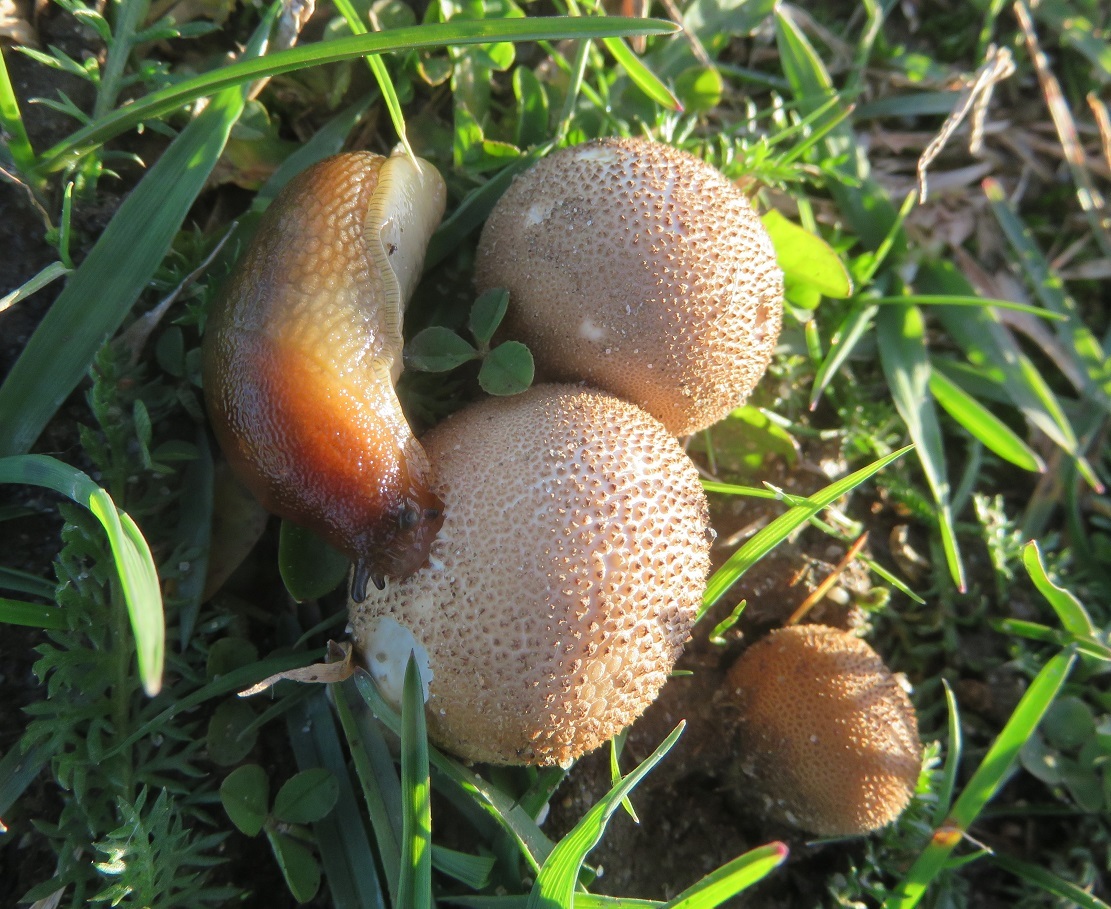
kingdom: Animalia
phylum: Mollusca
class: Gastropoda
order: Stylommatophora
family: Arionidae
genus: Arion
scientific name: Arion subfuscus
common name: Dusky arion
